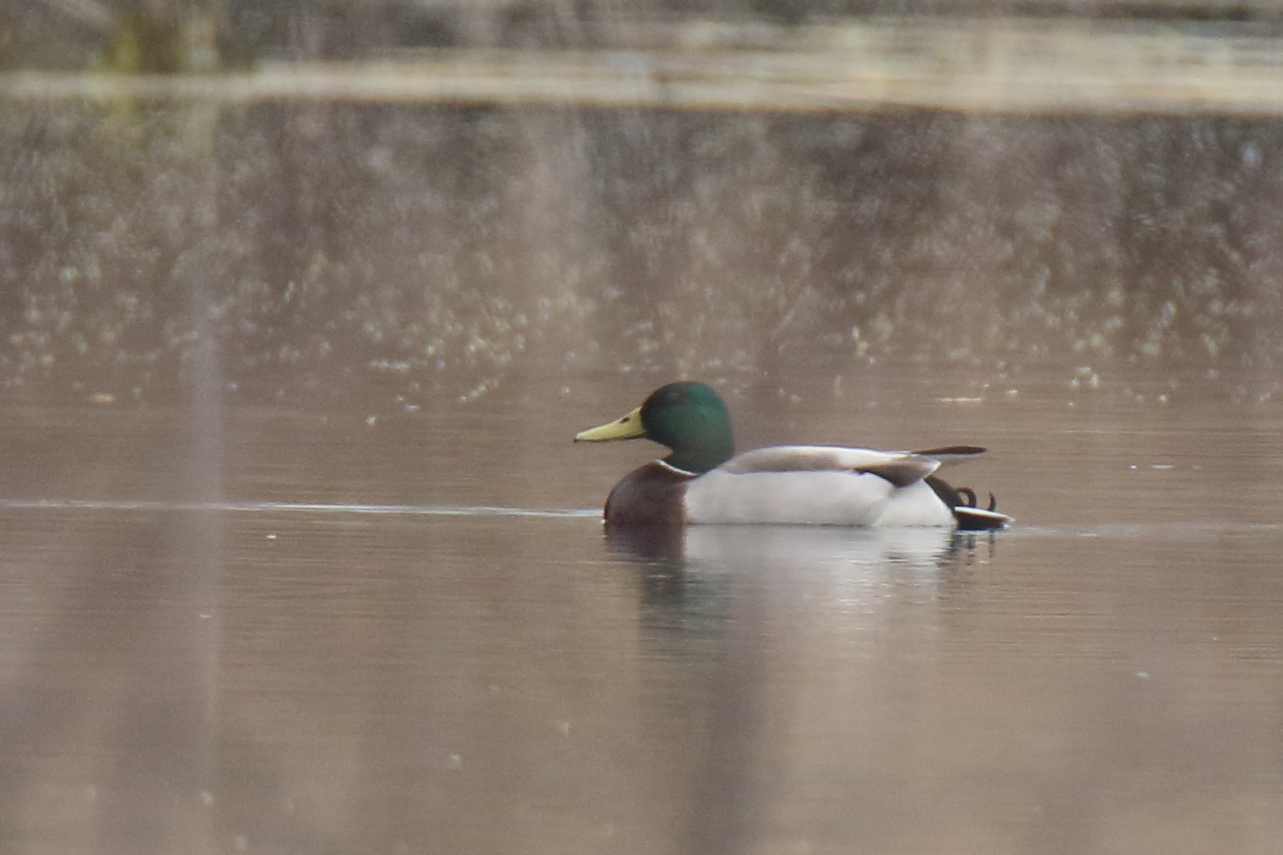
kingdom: Animalia
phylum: Chordata
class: Aves
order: Anseriformes
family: Anatidae
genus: Anas
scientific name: Anas platyrhynchos
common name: Mallard
